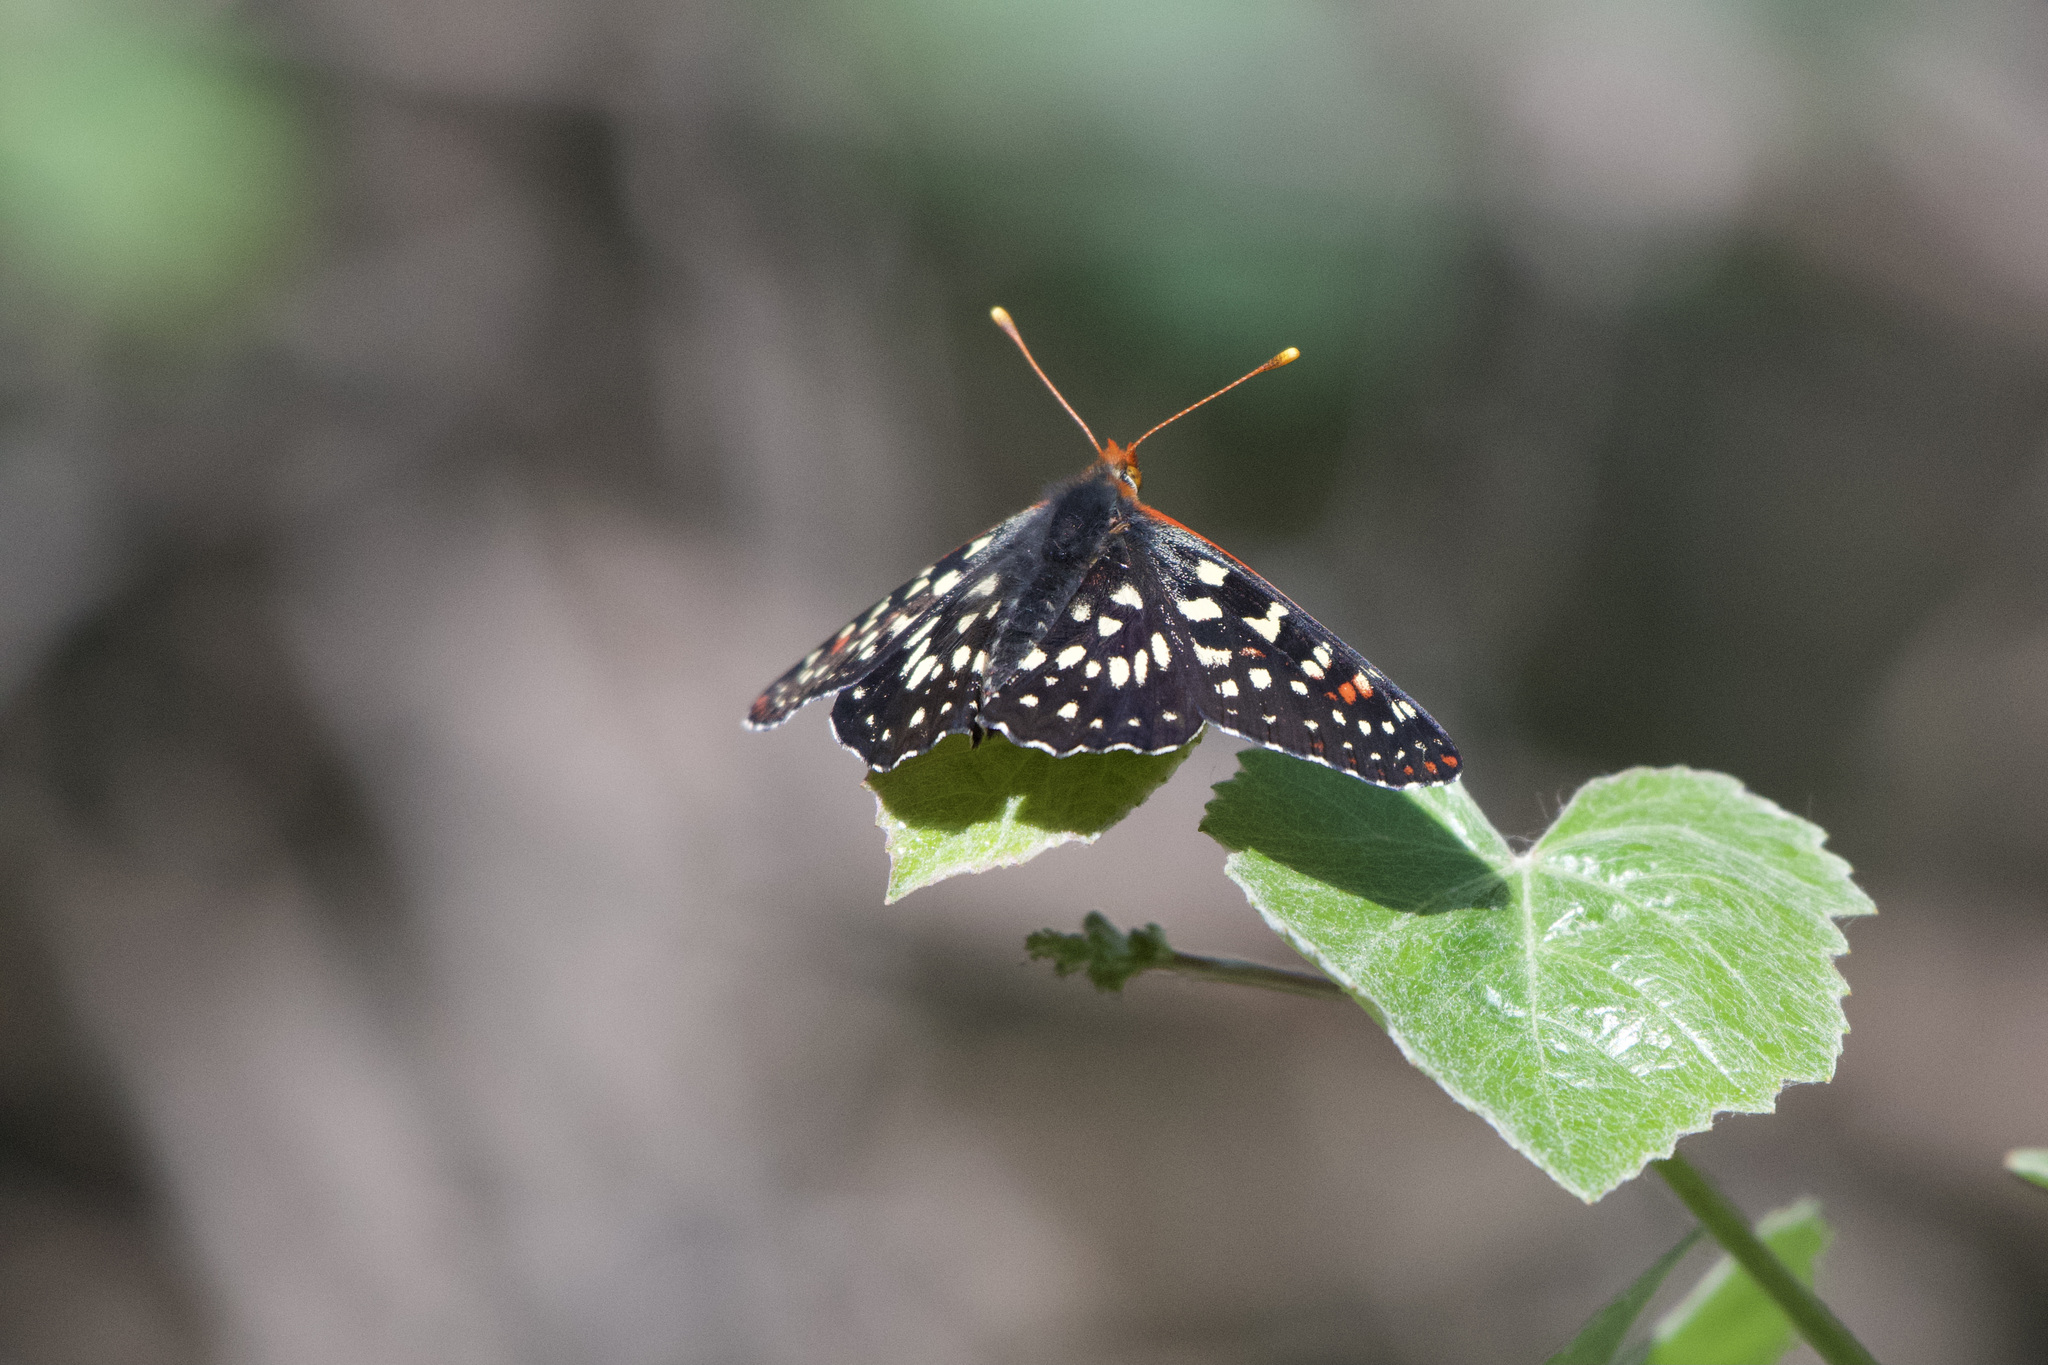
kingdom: Animalia
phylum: Arthropoda
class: Insecta
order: Lepidoptera
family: Nymphalidae
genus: Occidryas
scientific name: Occidryas chalcedona
